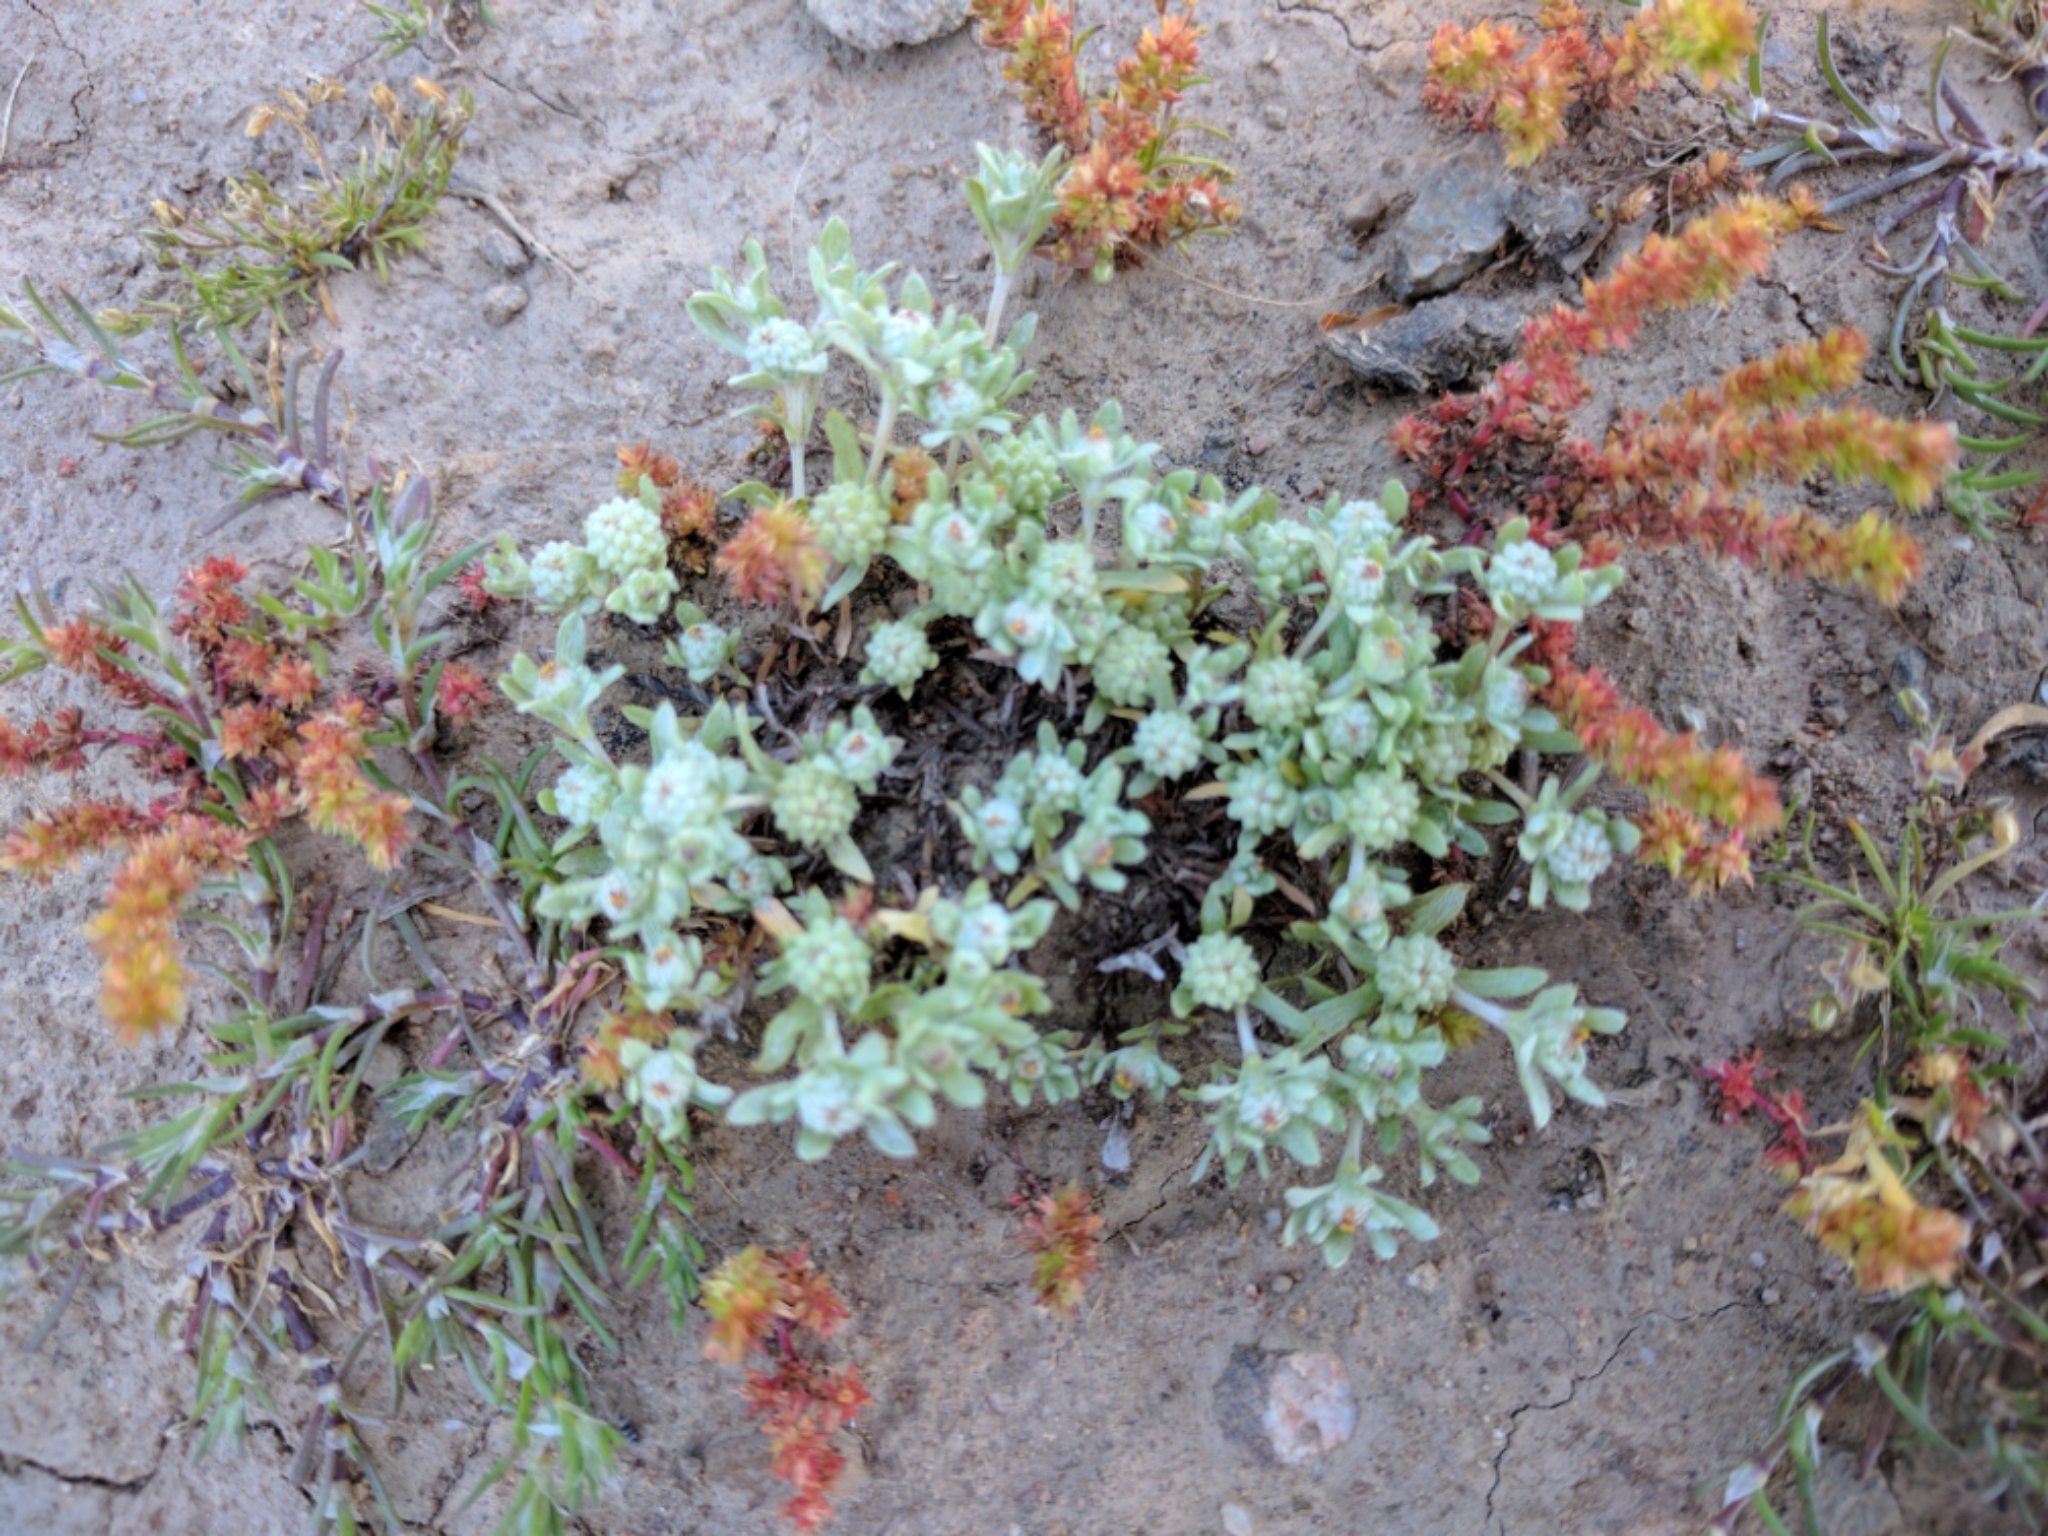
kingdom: Plantae
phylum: Tracheophyta
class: Magnoliopsida
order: Asterales
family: Asteraceae
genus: Psilocarphus
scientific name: Psilocarphus tenellus
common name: Slender woolly-marbles
